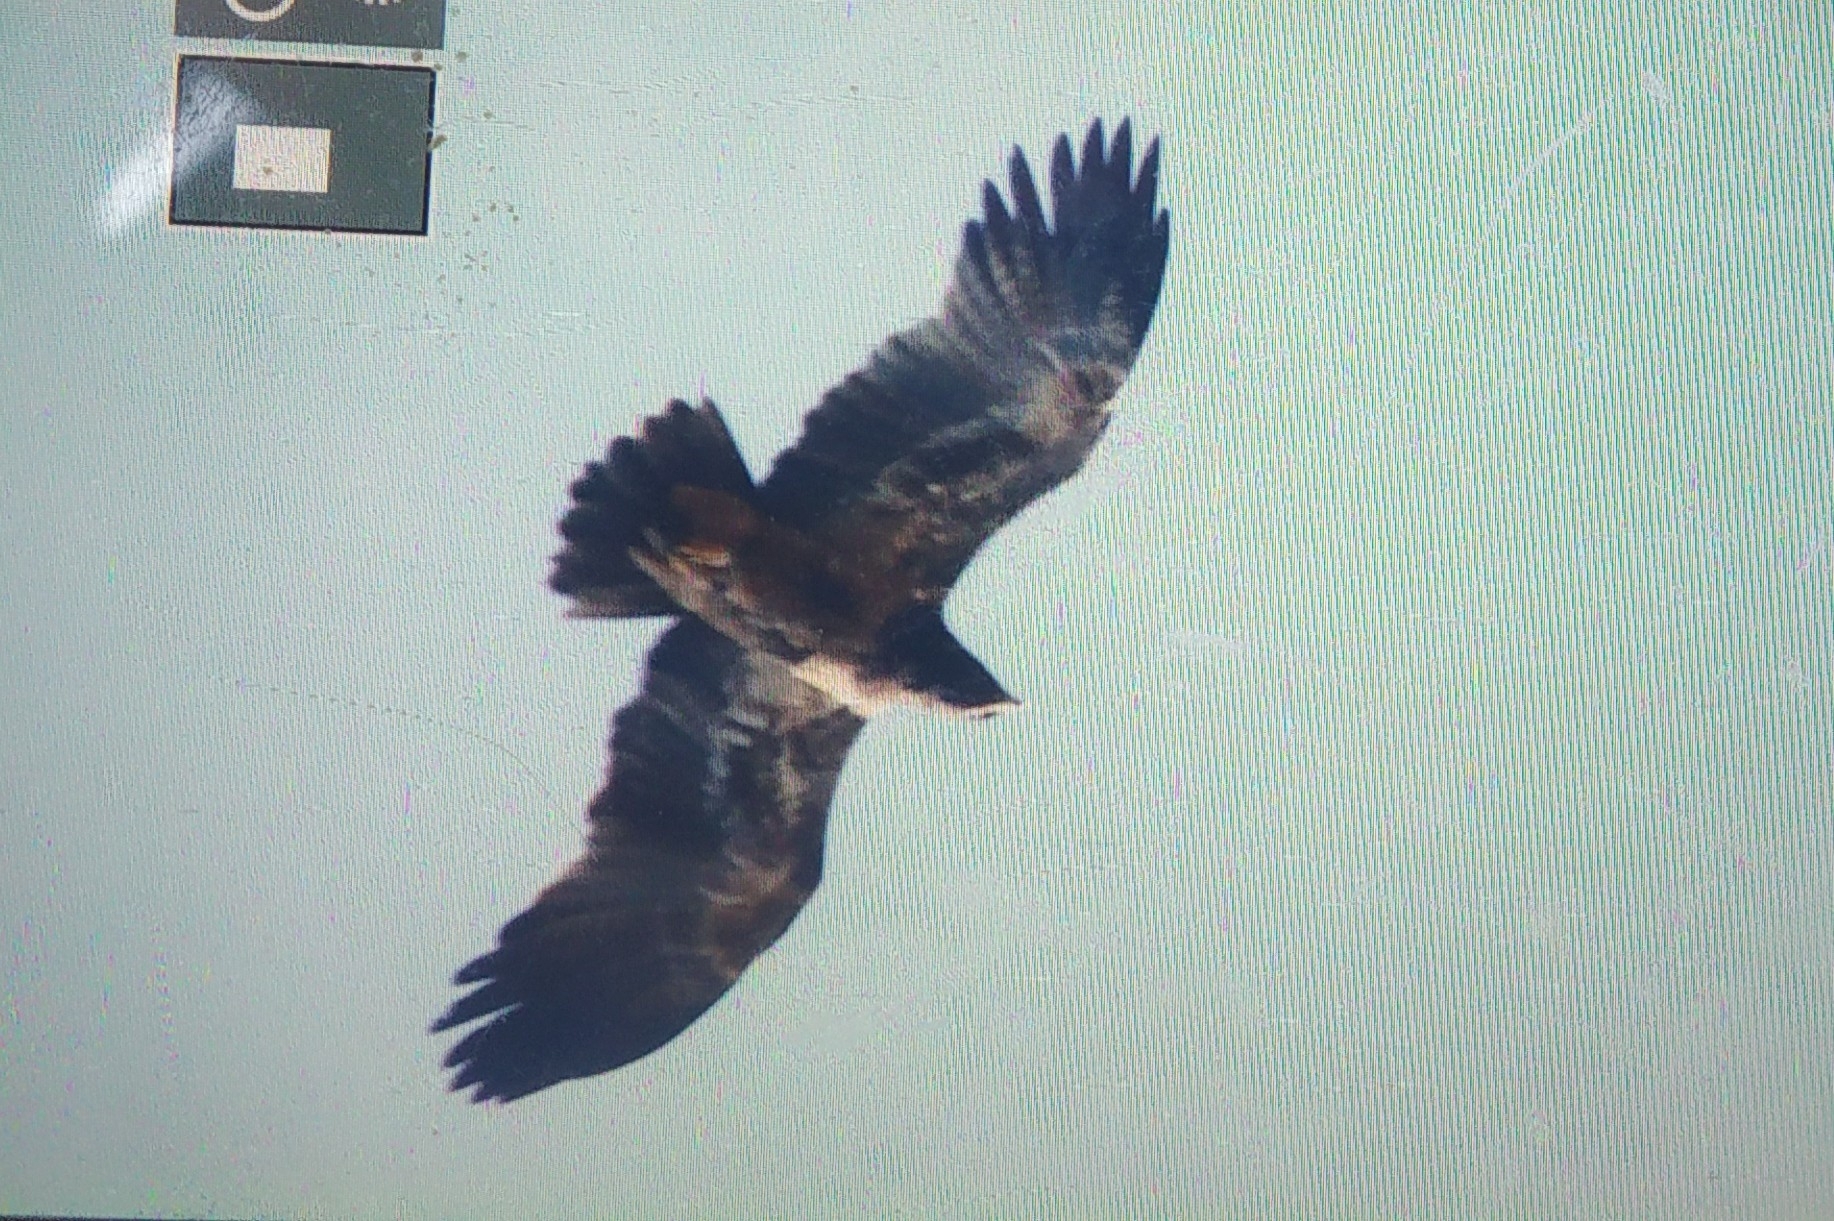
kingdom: Animalia
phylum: Chordata
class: Aves
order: Accipitriformes
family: Accipitridae
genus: Aquila
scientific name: Aquila rapax
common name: Tawny eagle
